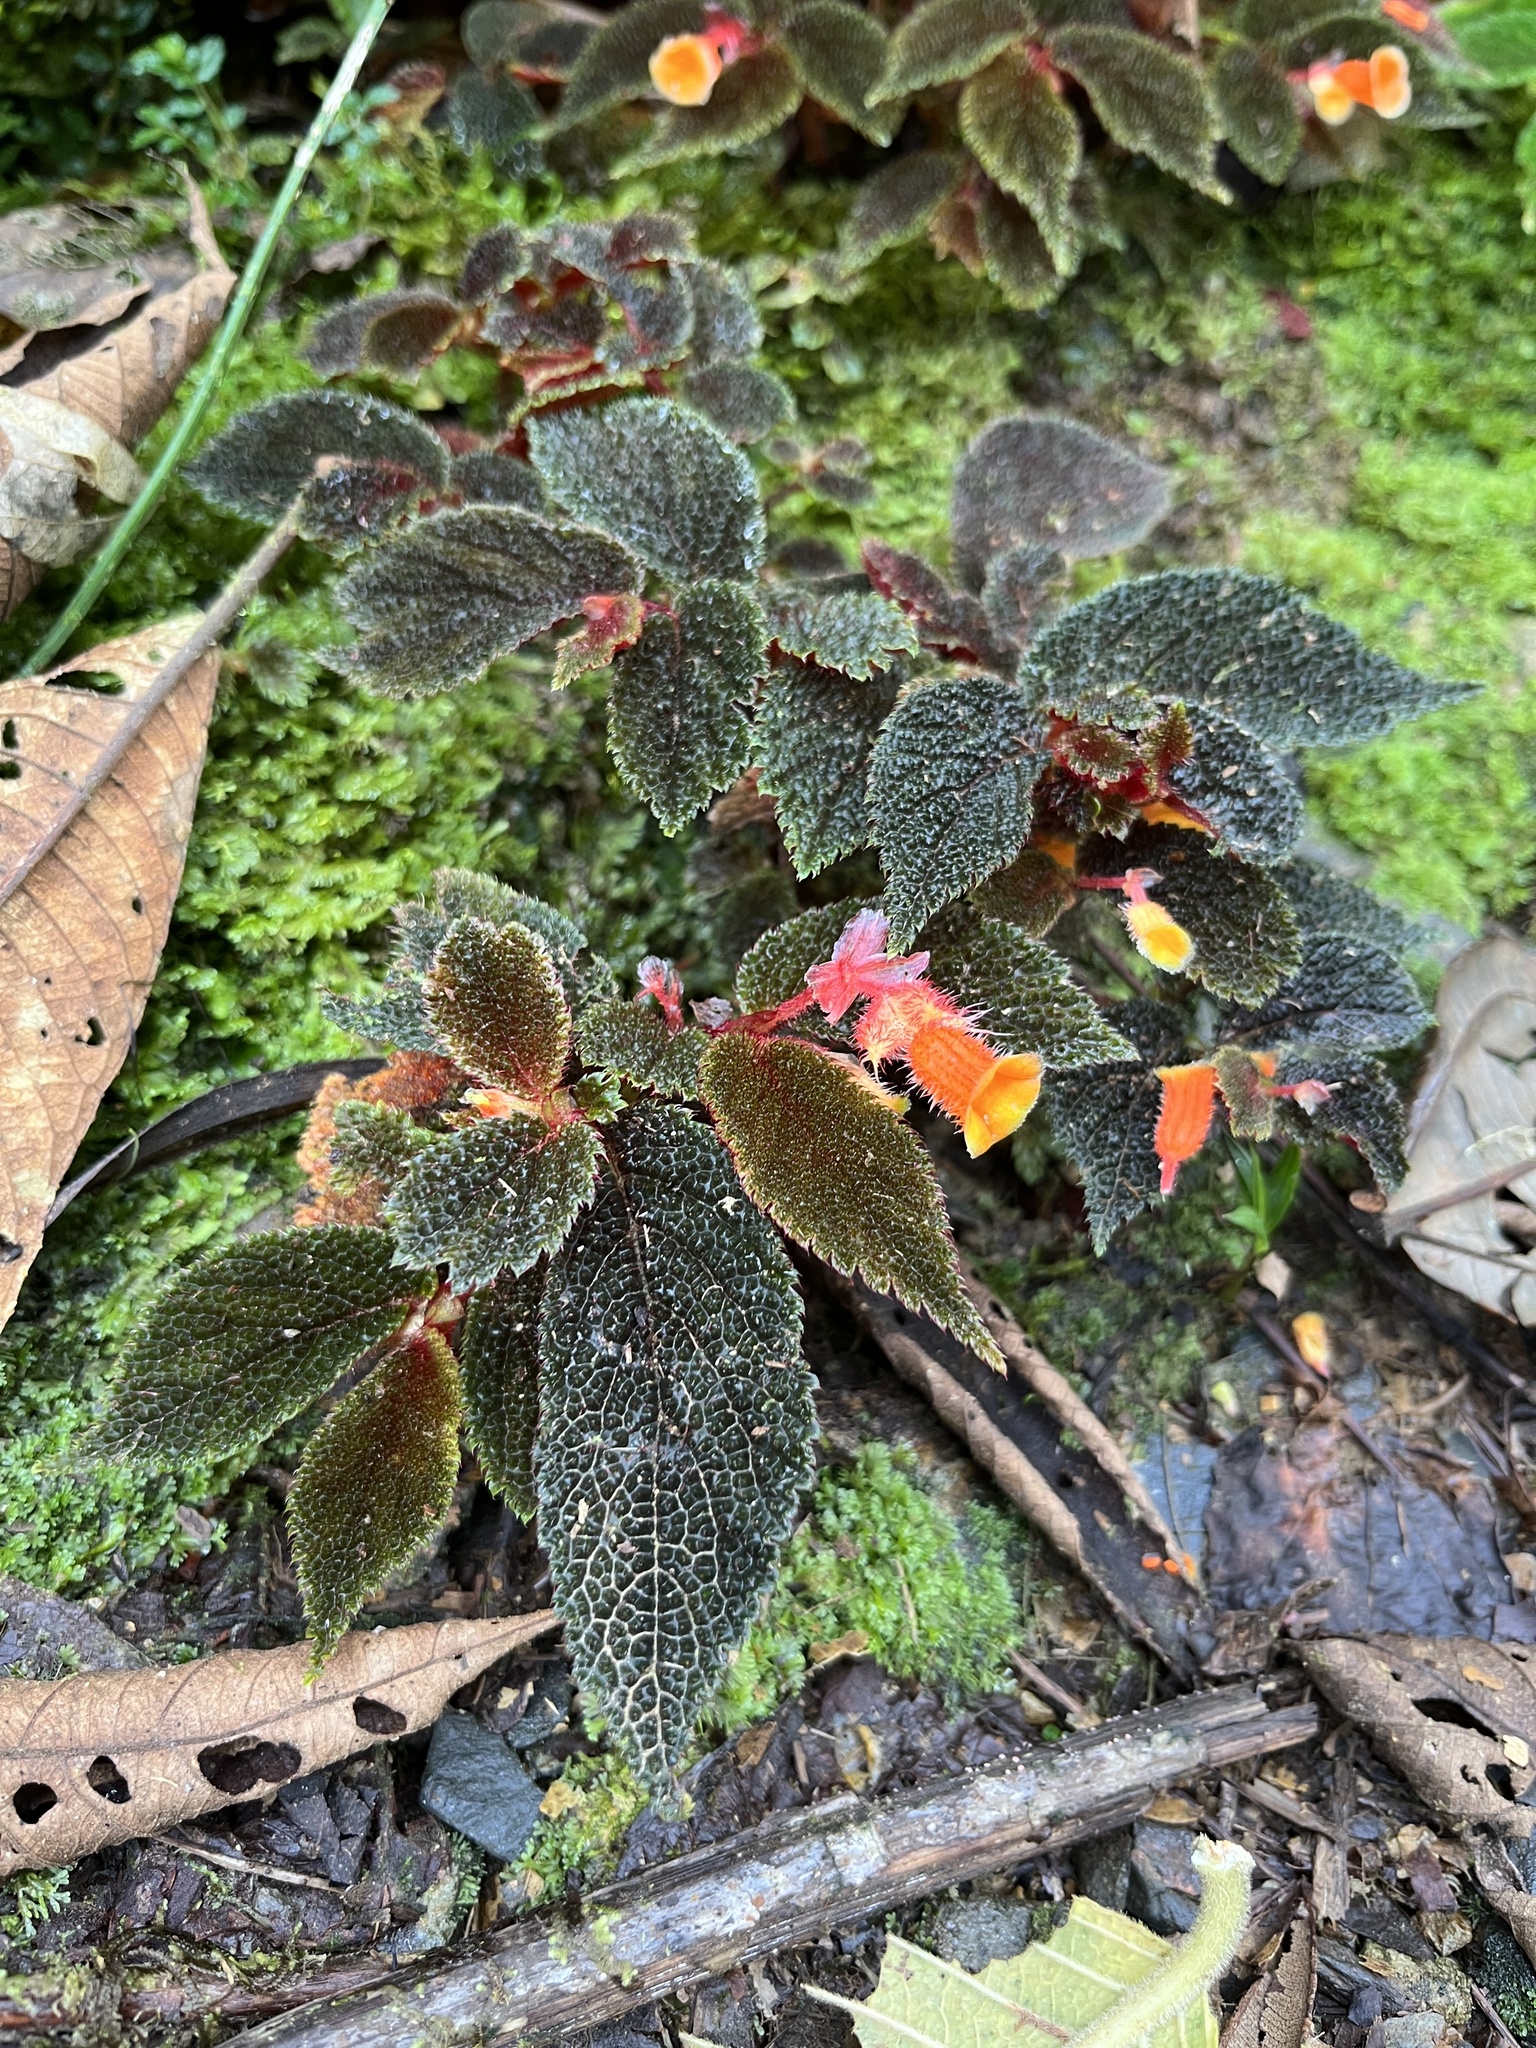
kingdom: Plantae
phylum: Tracheophyta
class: Magnoliopsida
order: Cucurbitales
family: Begoniaceae
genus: Begonia
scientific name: Begonia lehmannii
